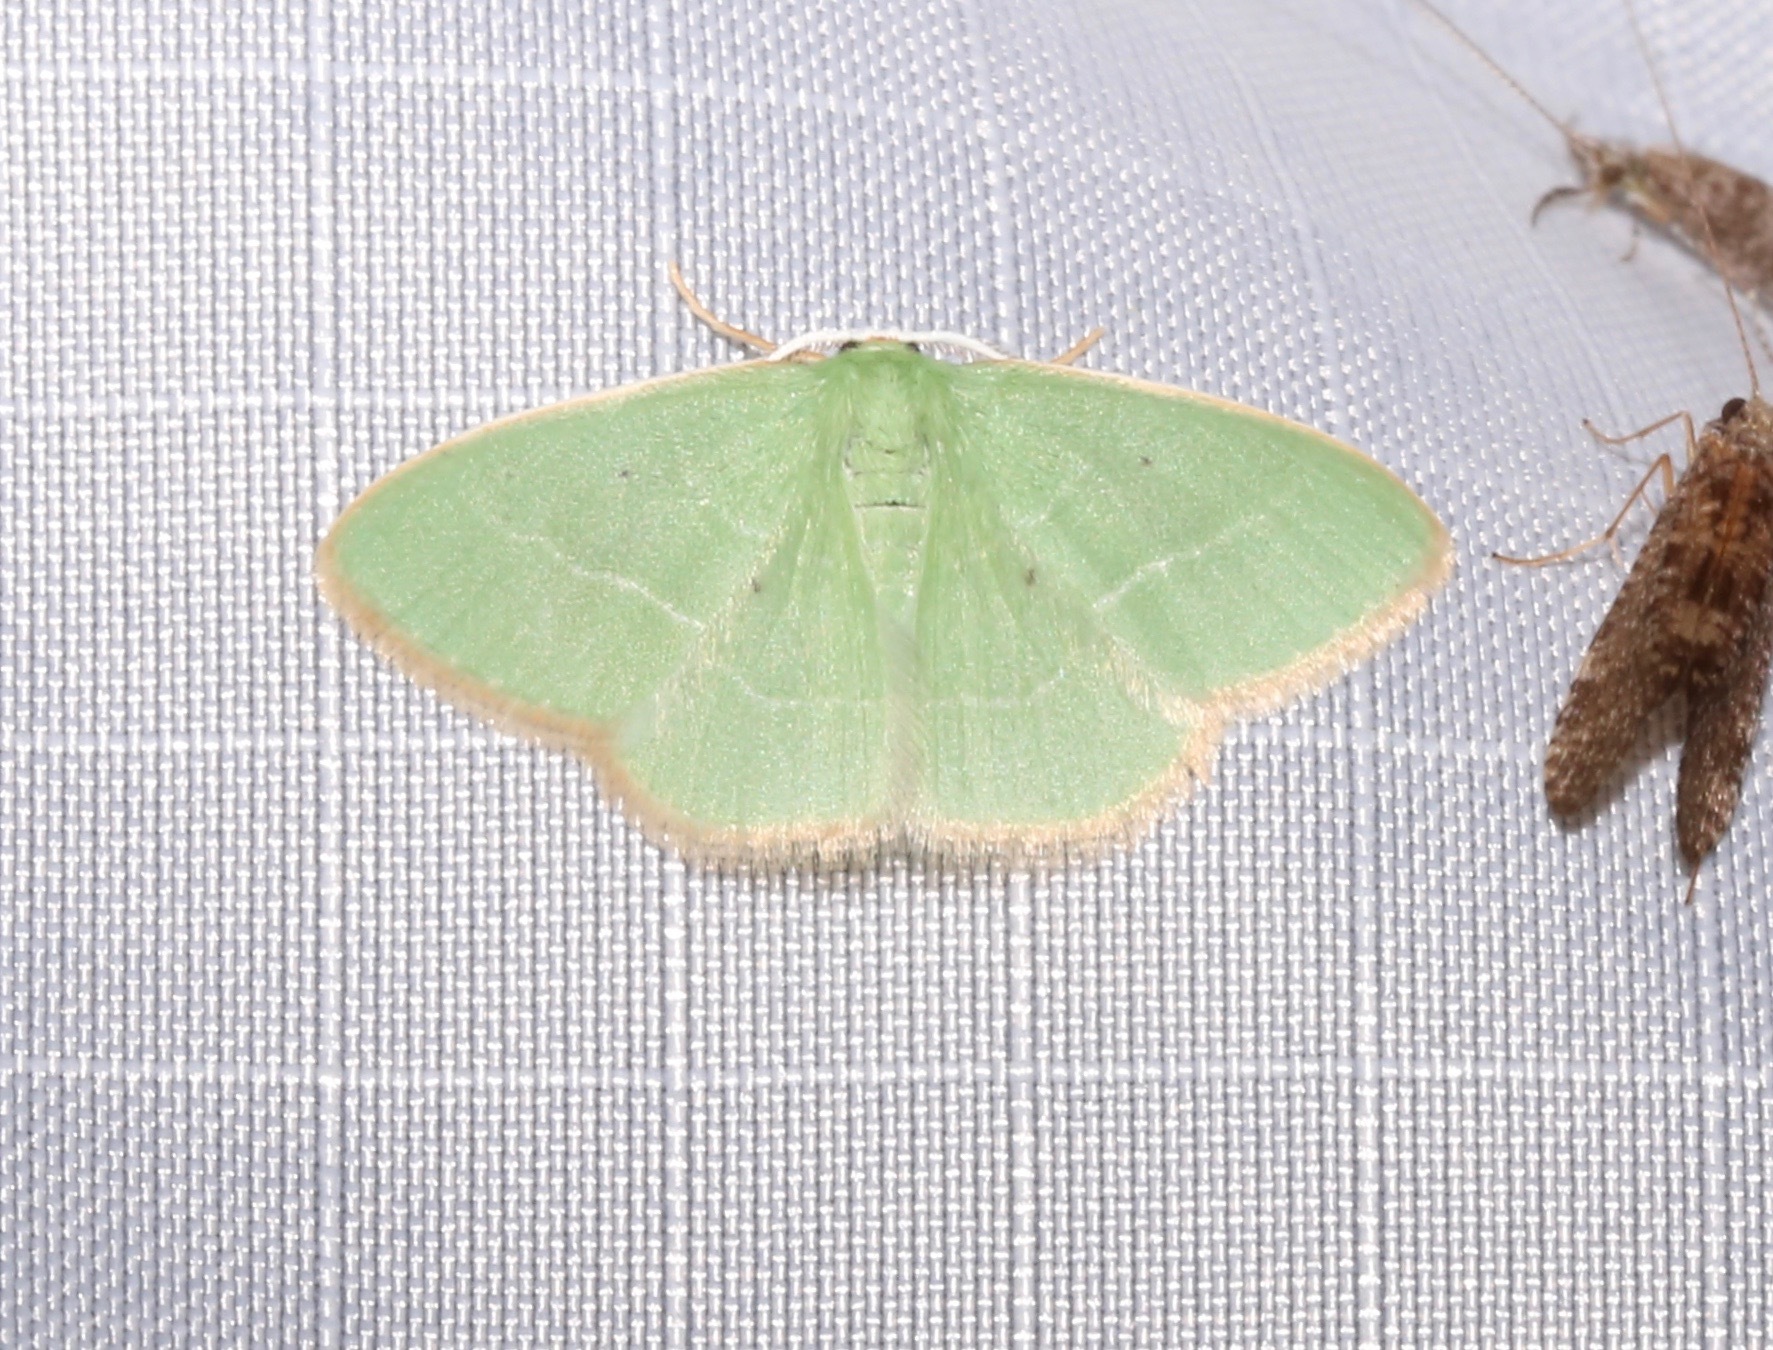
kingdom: Animalia
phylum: Arthropoda
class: Insecta
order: Lepidoptera
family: Geometridae
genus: Nemoria
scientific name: Nemoria extremaria
